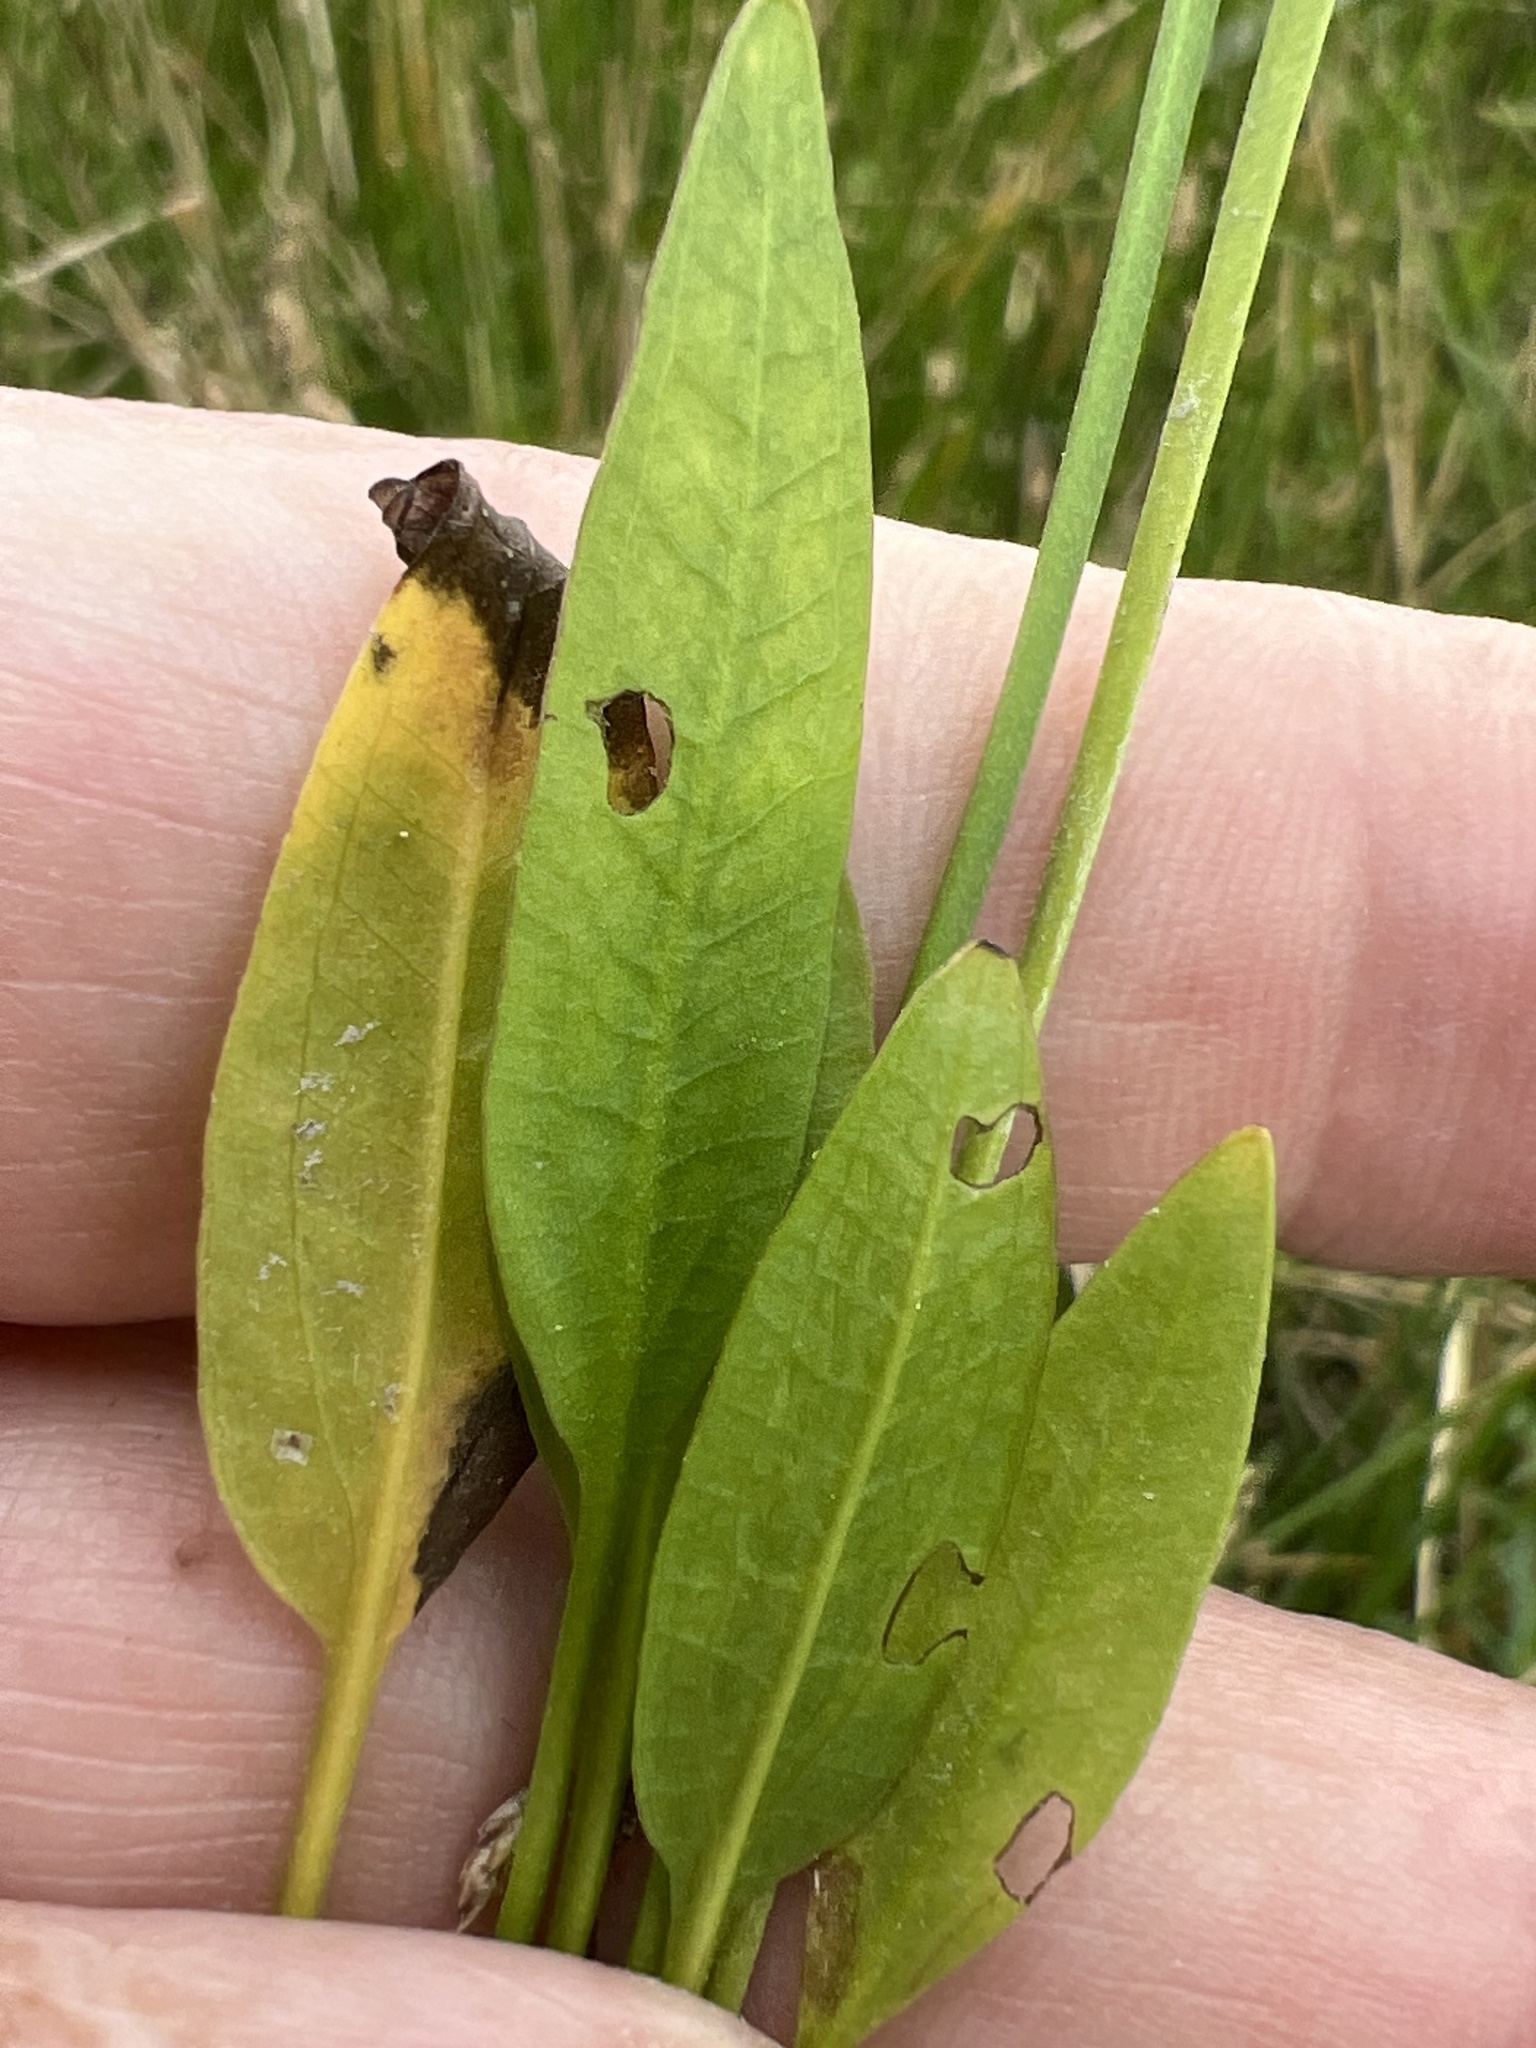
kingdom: Plantae
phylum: Tracheophyta
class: Liliopsida
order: Alismatales
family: Alismataceae
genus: Echinodorus
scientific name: Echinodorus berteroi
